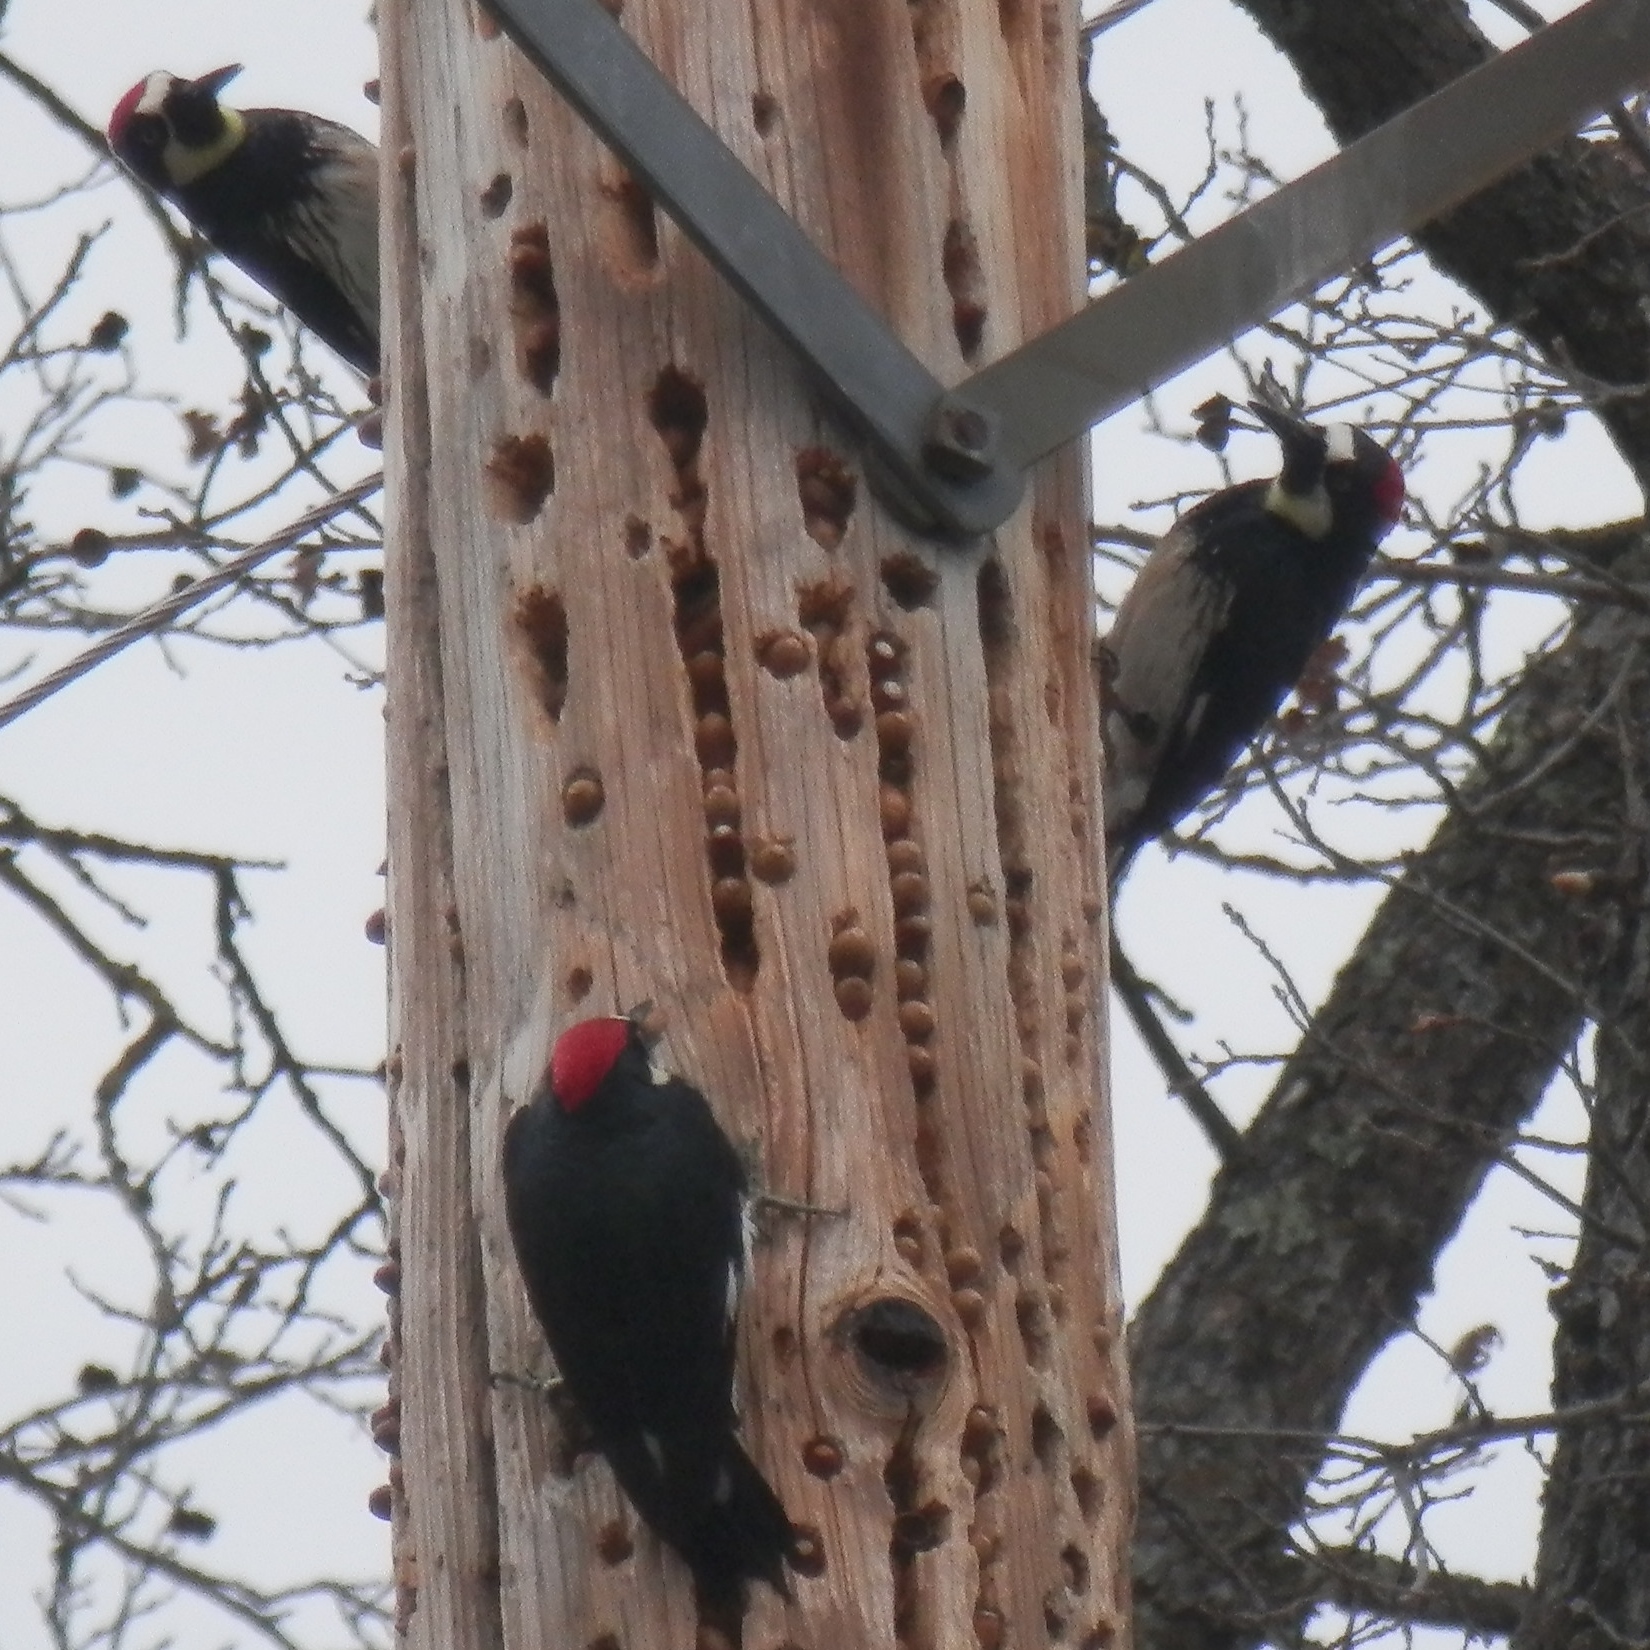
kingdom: Animalia
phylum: Chordata
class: Aves
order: Piciformes
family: Picidae
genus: Melanerpes
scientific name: Melanerpes formicivorus
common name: Acorn woodpecker
